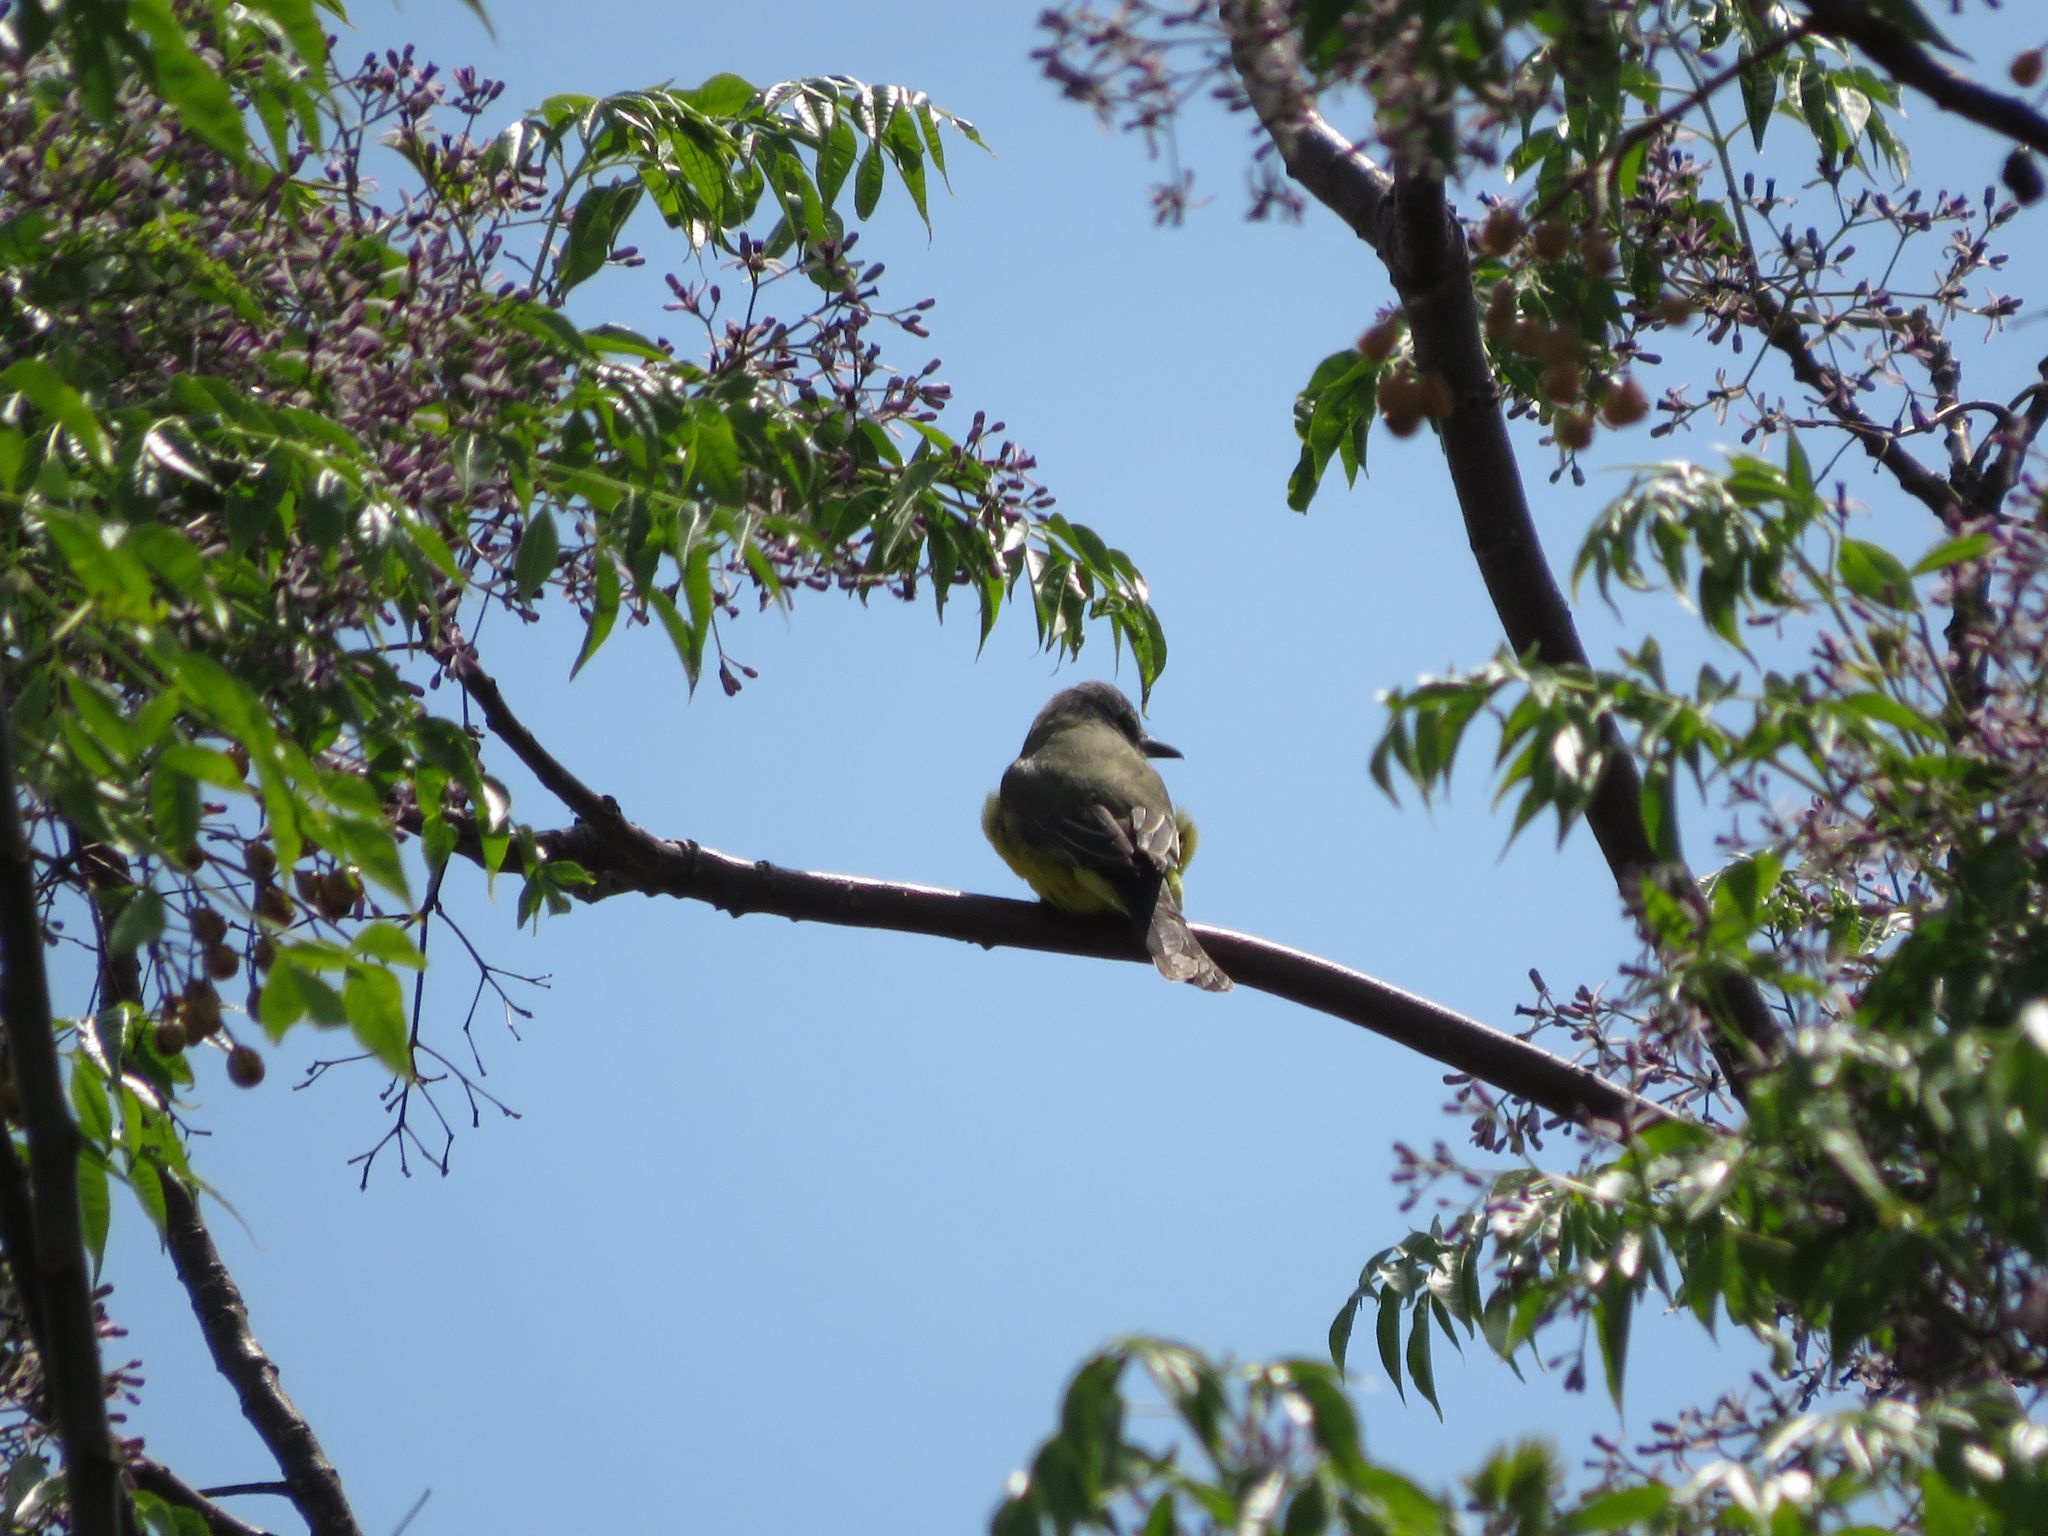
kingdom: Animalia
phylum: Chordata
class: Aves
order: Passeriformes
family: Tyrannidae
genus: Tyrannus
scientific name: Tyrannus melancholicus
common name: Tropical kingbird
